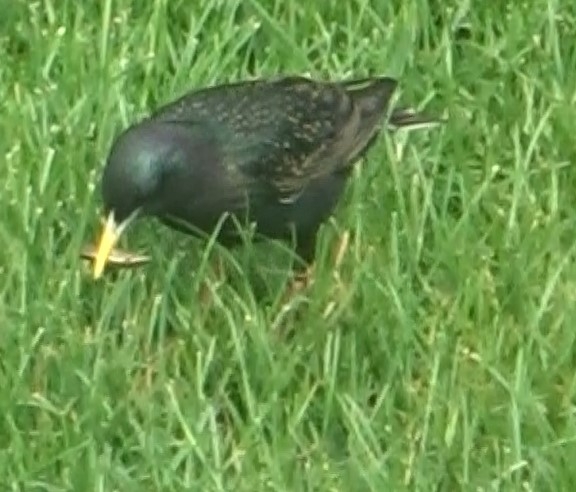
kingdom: Animalia
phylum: Chordata
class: Aves
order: Passeriformes
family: Sturnidae
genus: Sturnus
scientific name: Sturnus vulgaris
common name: Common starling
